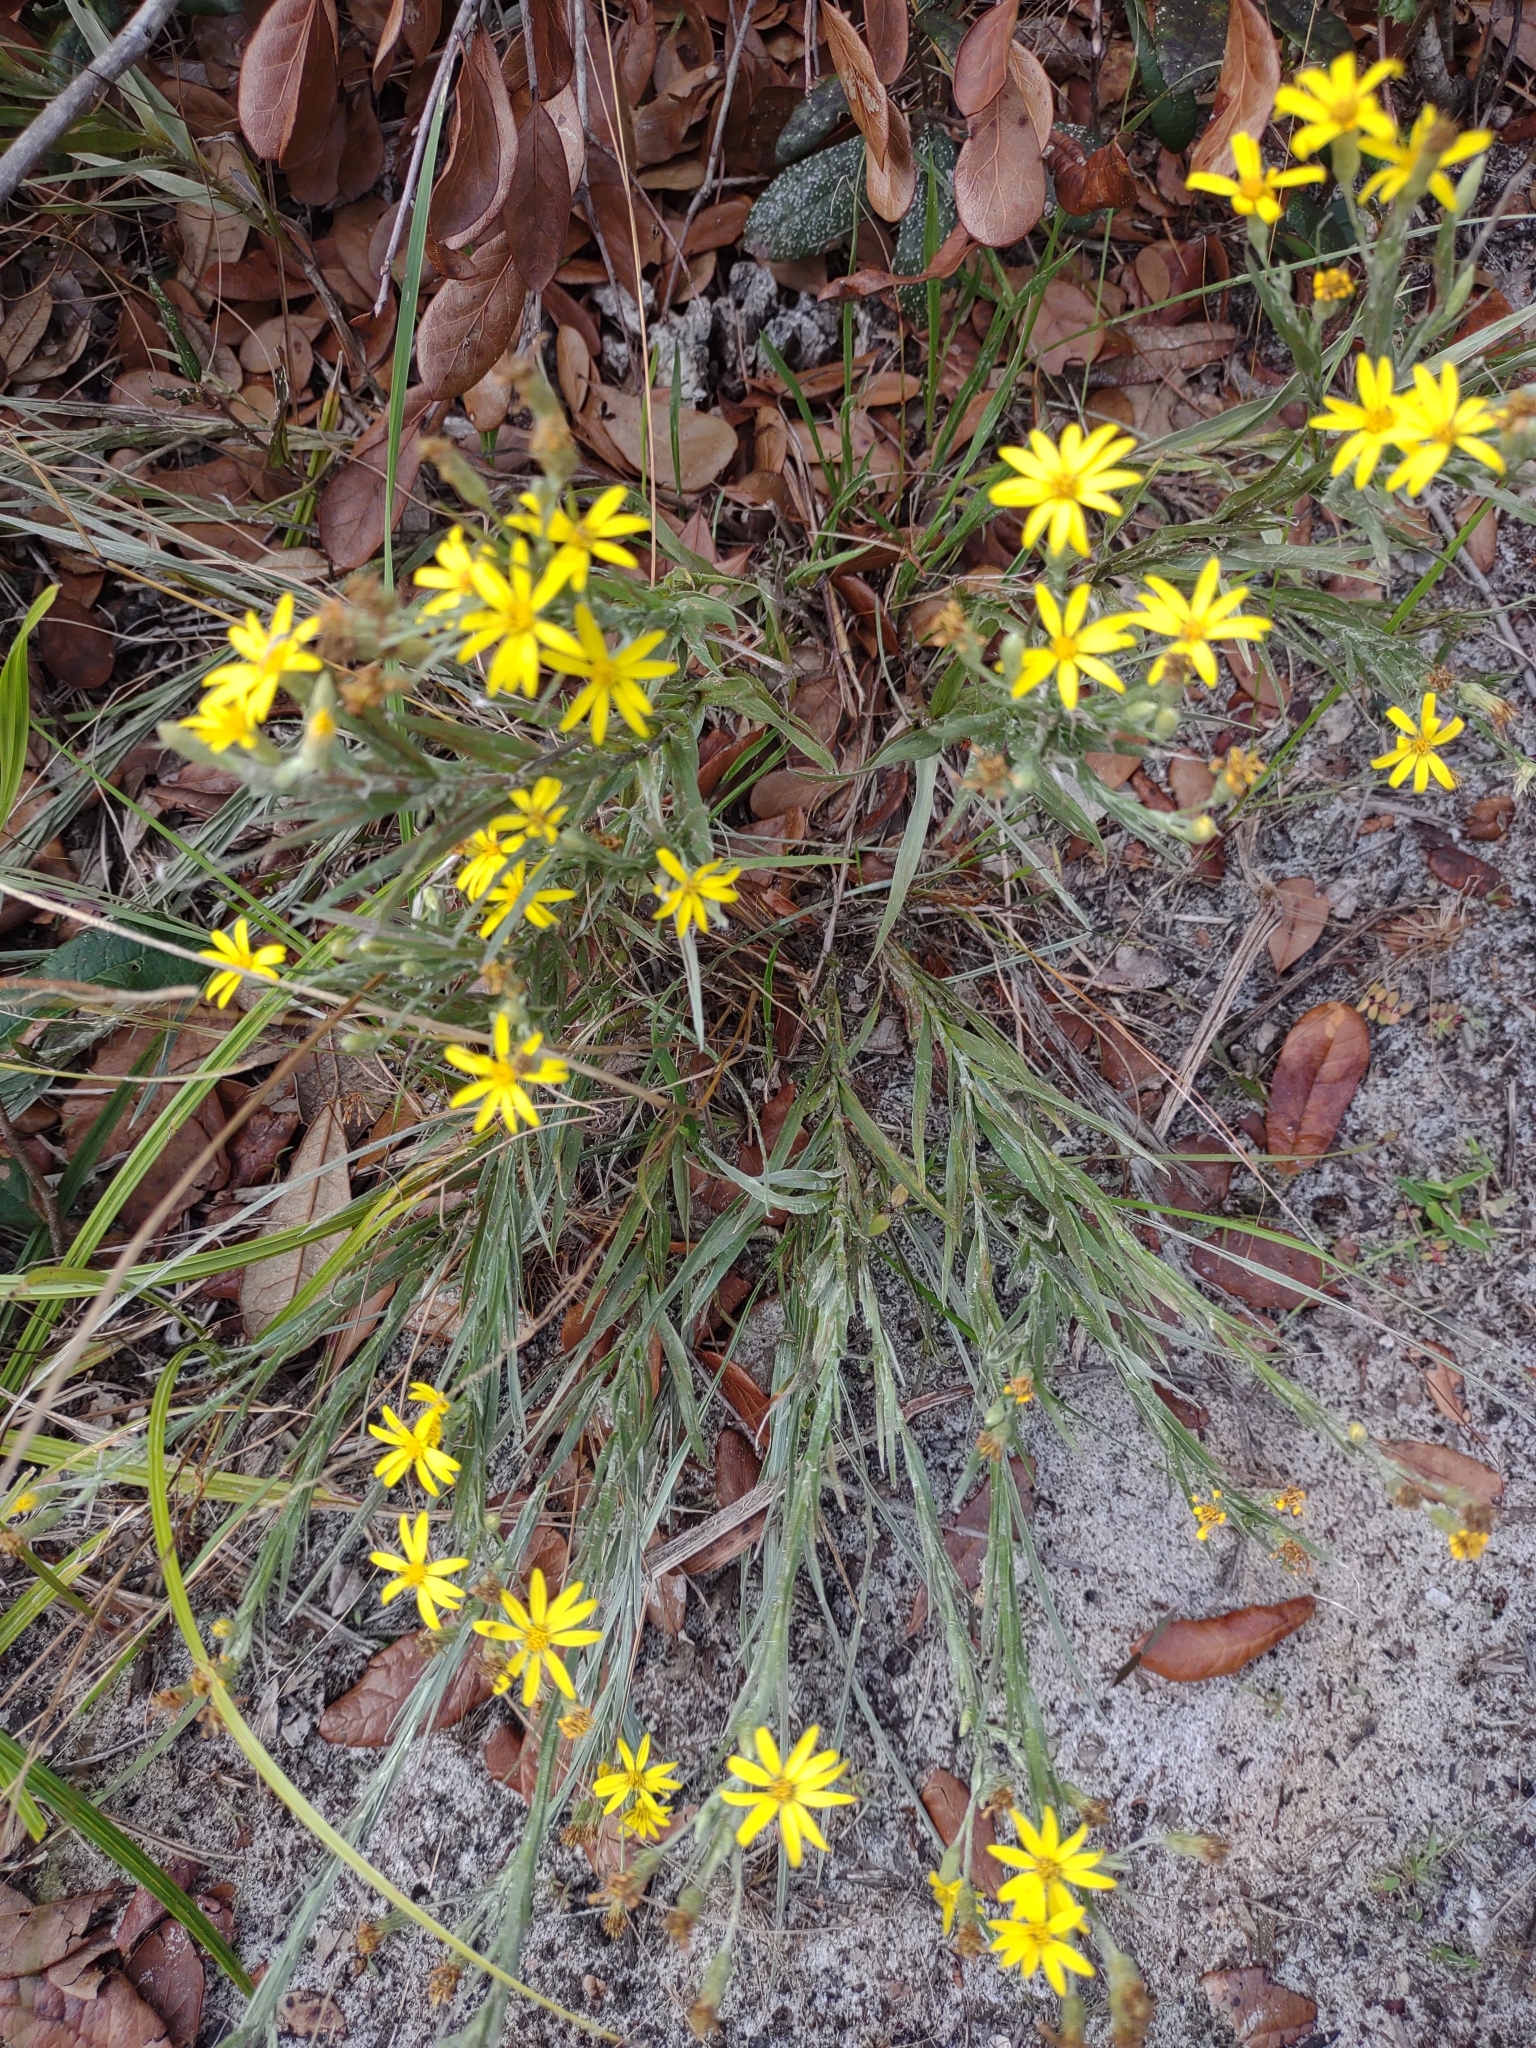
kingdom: Plantae
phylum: Tracheophyta
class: Magnoliopsida
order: Asterales
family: Asteraceae
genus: Pityopsis
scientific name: Pityopsis graminifolia
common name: Grass-leaf golden-aster
